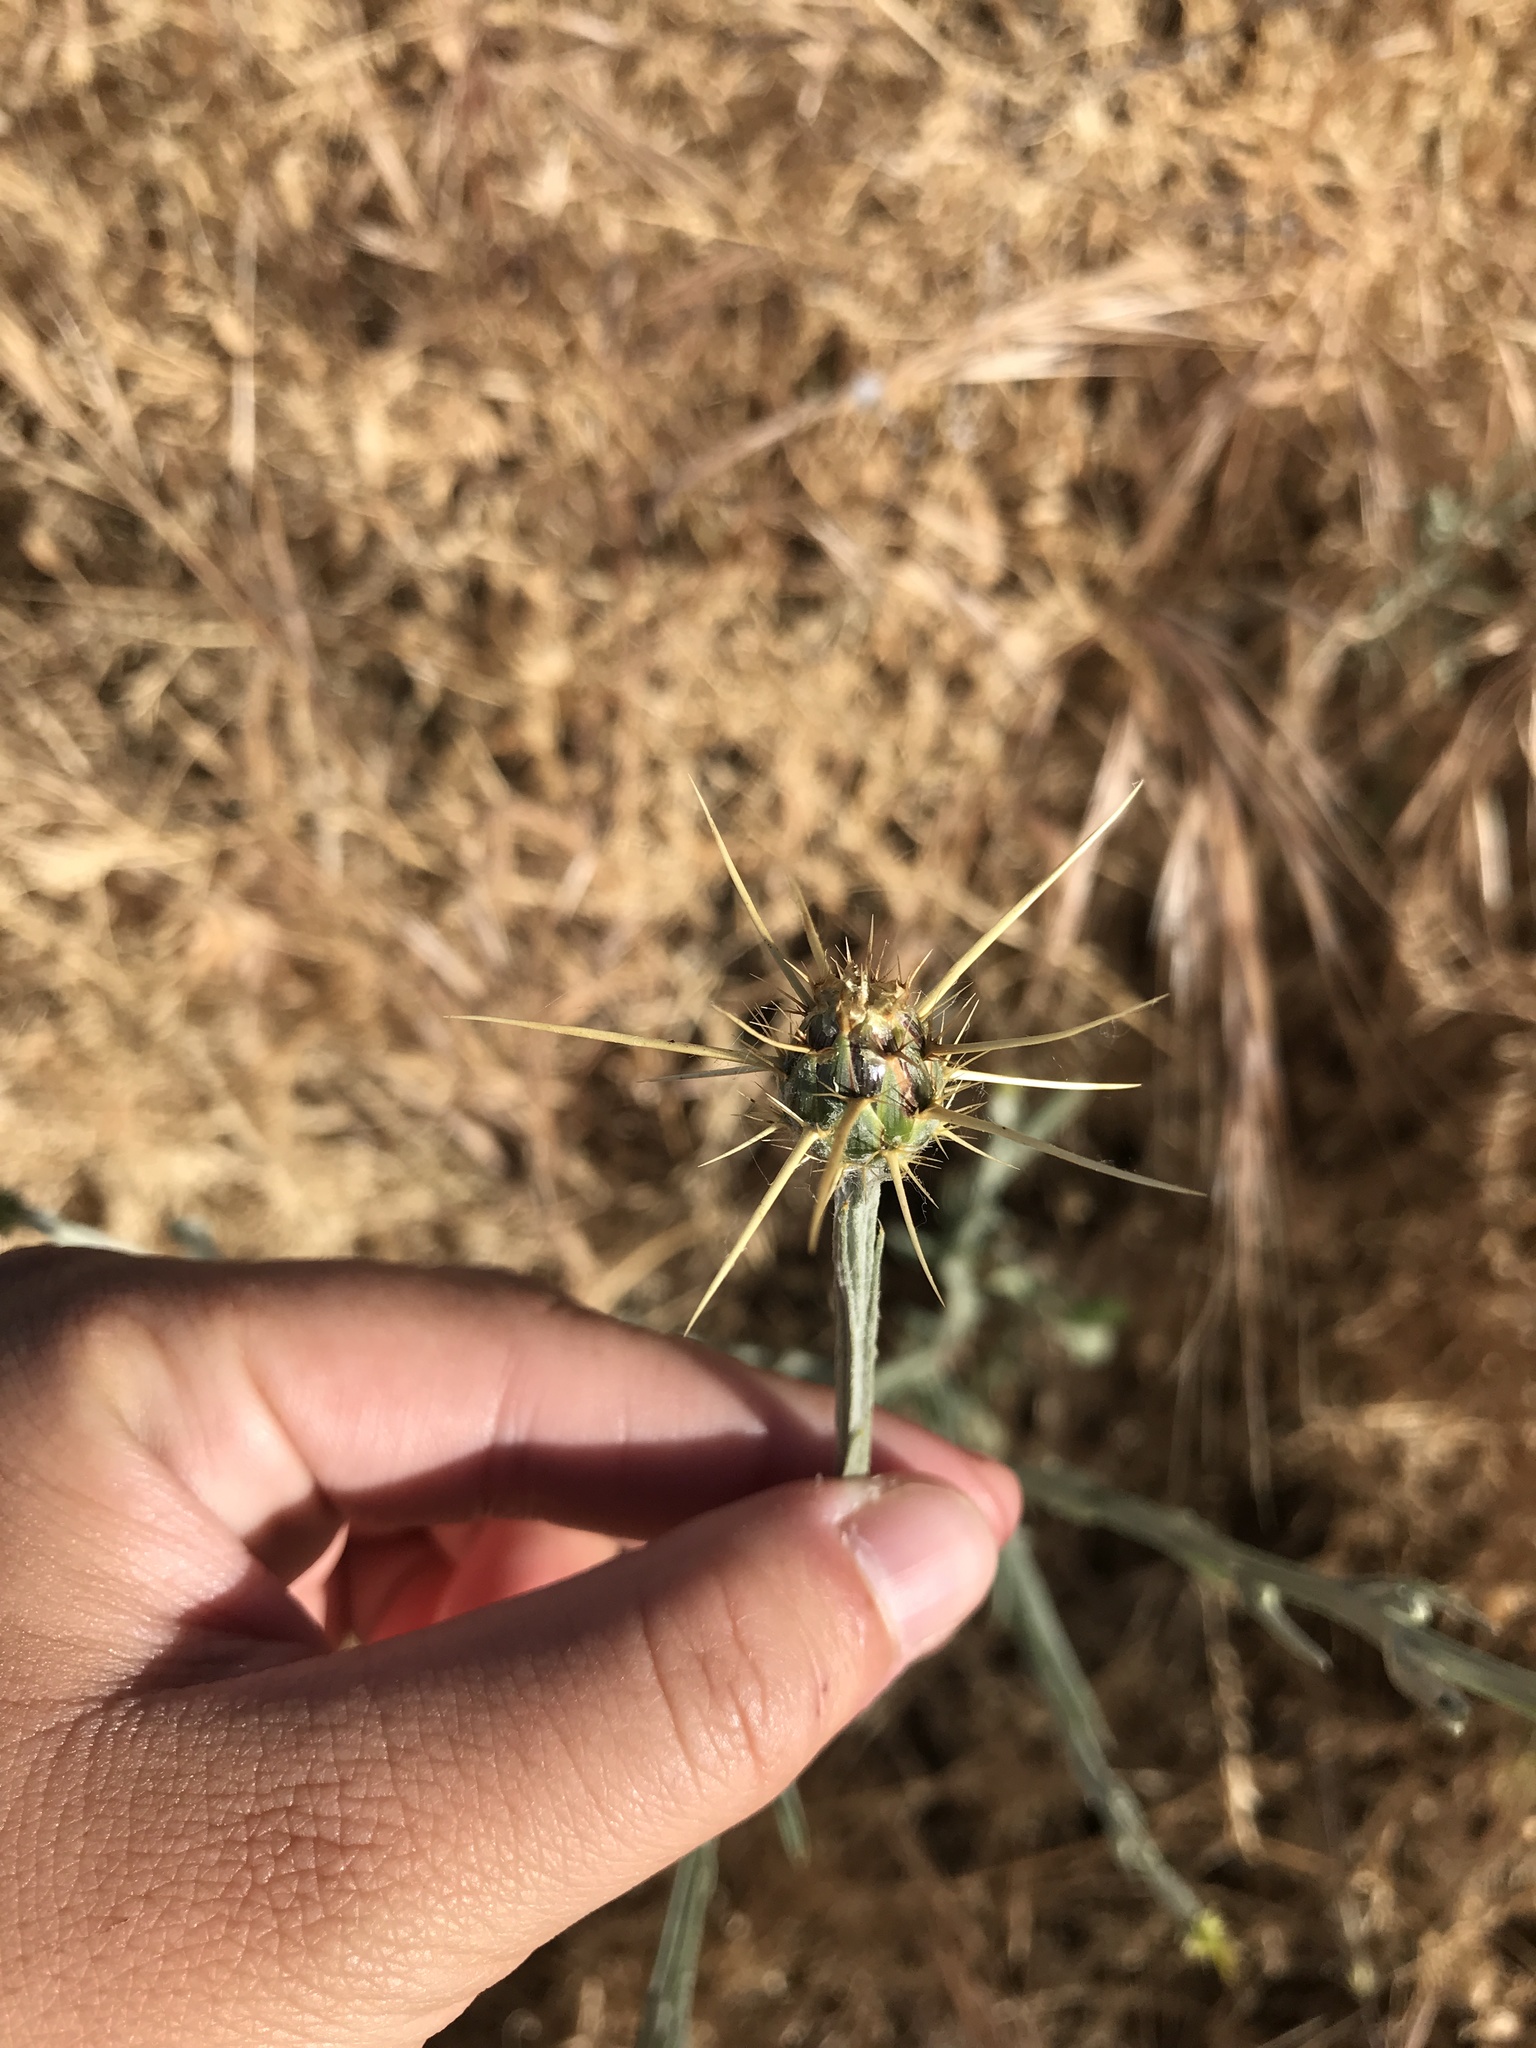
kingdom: Plantae
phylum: Tracheophyta
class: Magnoliopsida
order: Asterales
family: Asteraceae
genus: Centaurea
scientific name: Centaurea solstitialis
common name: Yellow star-thistle
